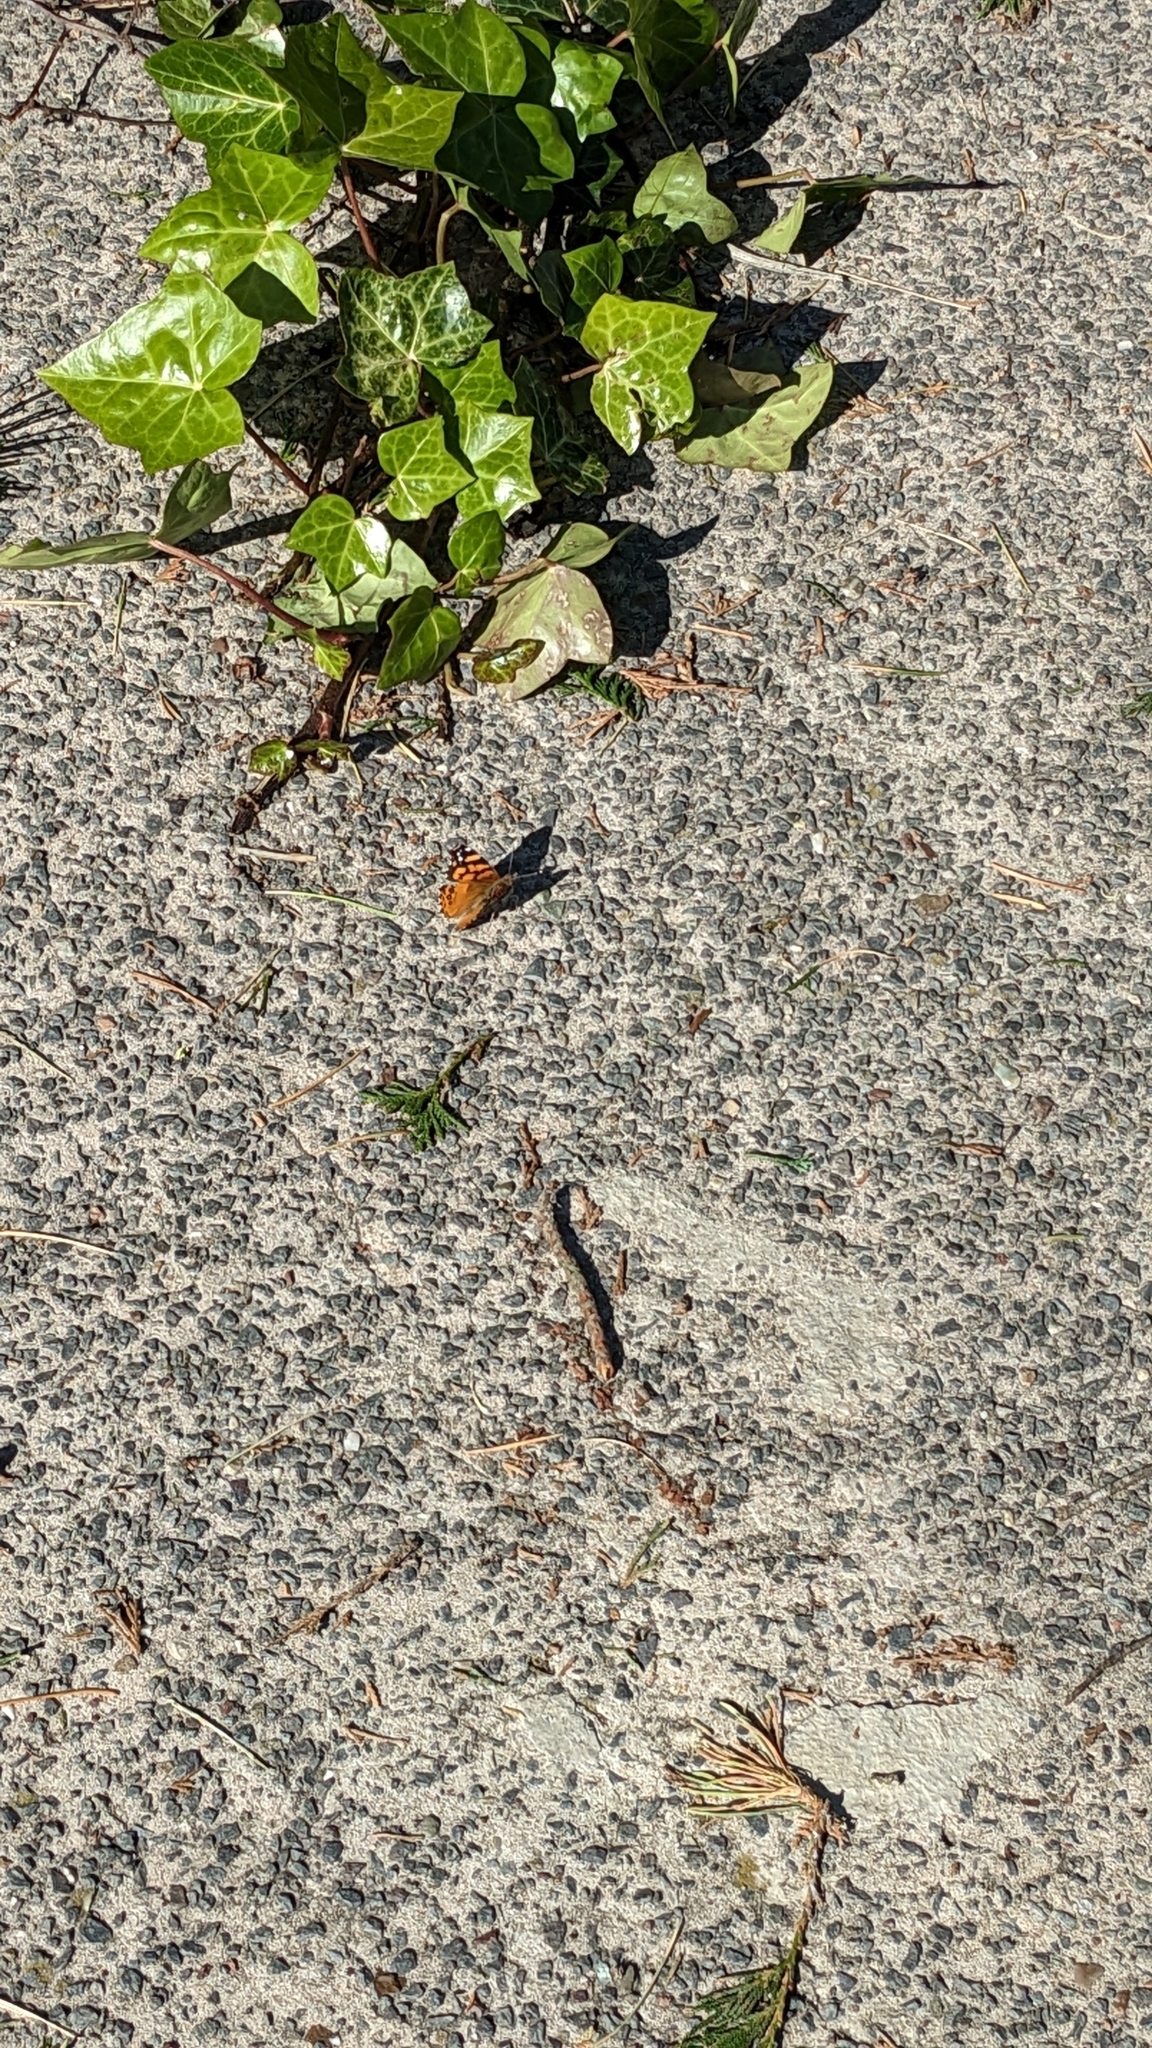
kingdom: Animalia
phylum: Arthropoda
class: Insecta
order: Lepidoptera
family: Nymphalidae
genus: Vanessa
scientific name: Vanessa annabella
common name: West coast lady
